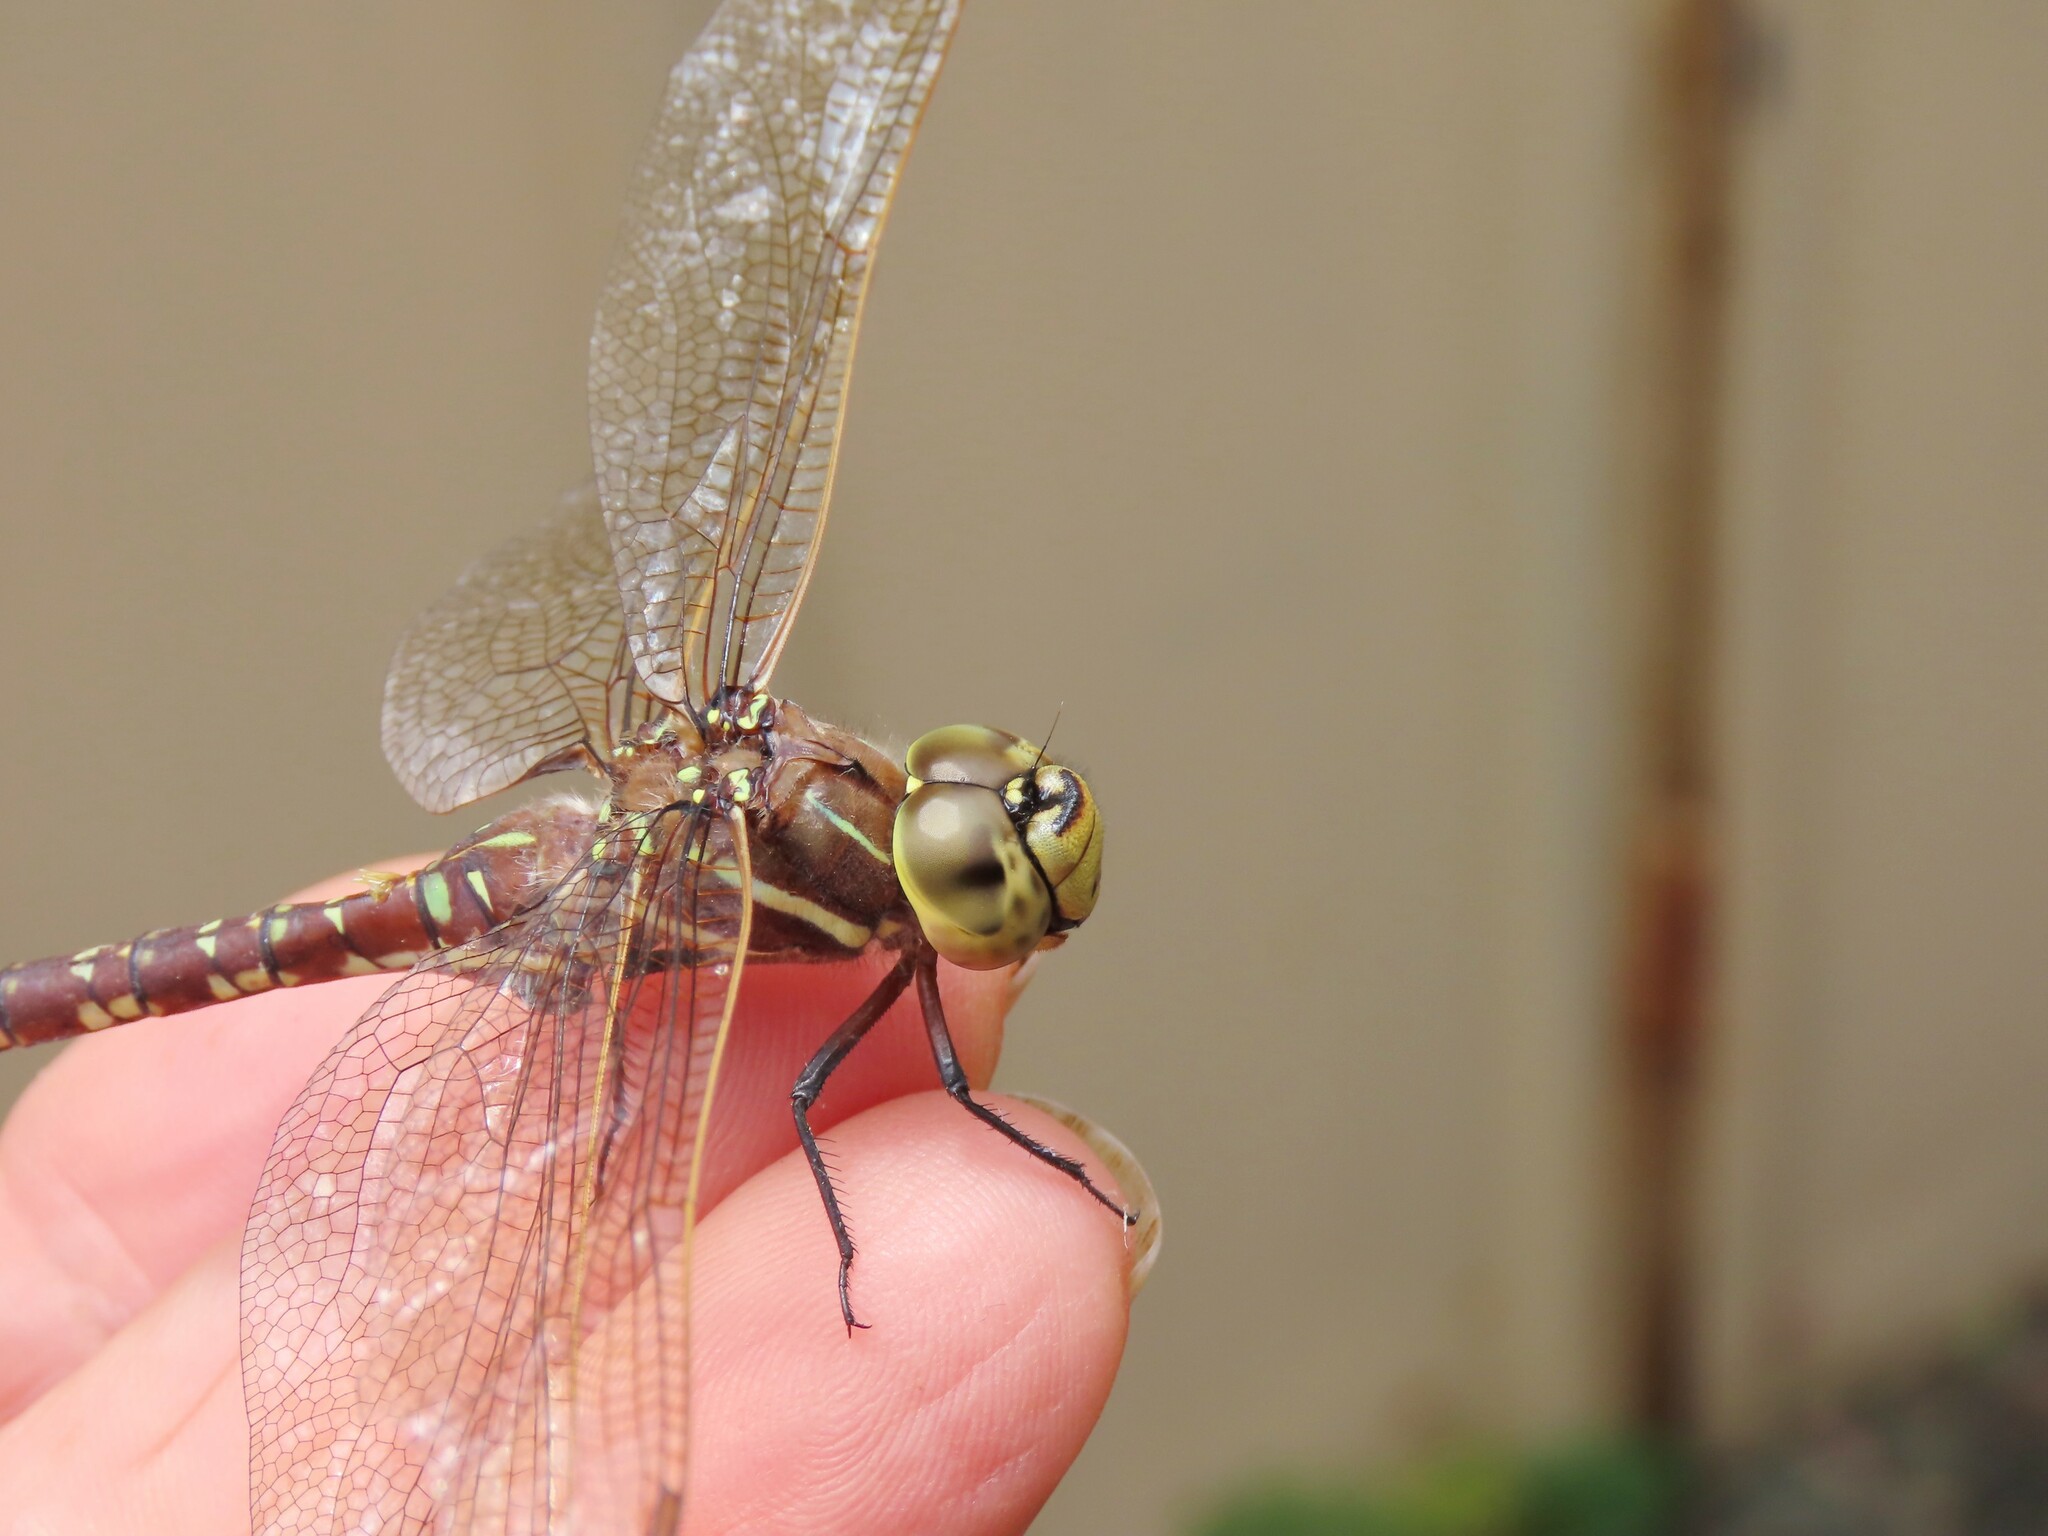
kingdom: Animalia
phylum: Arthropoda
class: Insecta
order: Odonata
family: Aeshnidae
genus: Aeshna
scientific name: Aeshna brevistyla
